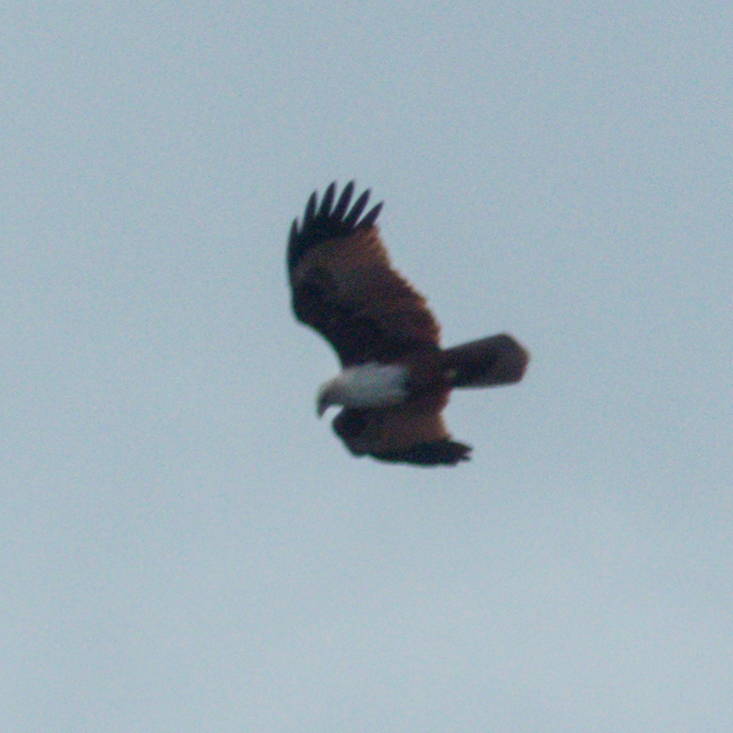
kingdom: Animalia
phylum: Chordata
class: Aves
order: Accipitriformes
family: Accipitridae
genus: Haliastur
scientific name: Haliastur indus
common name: Brahminy kite
